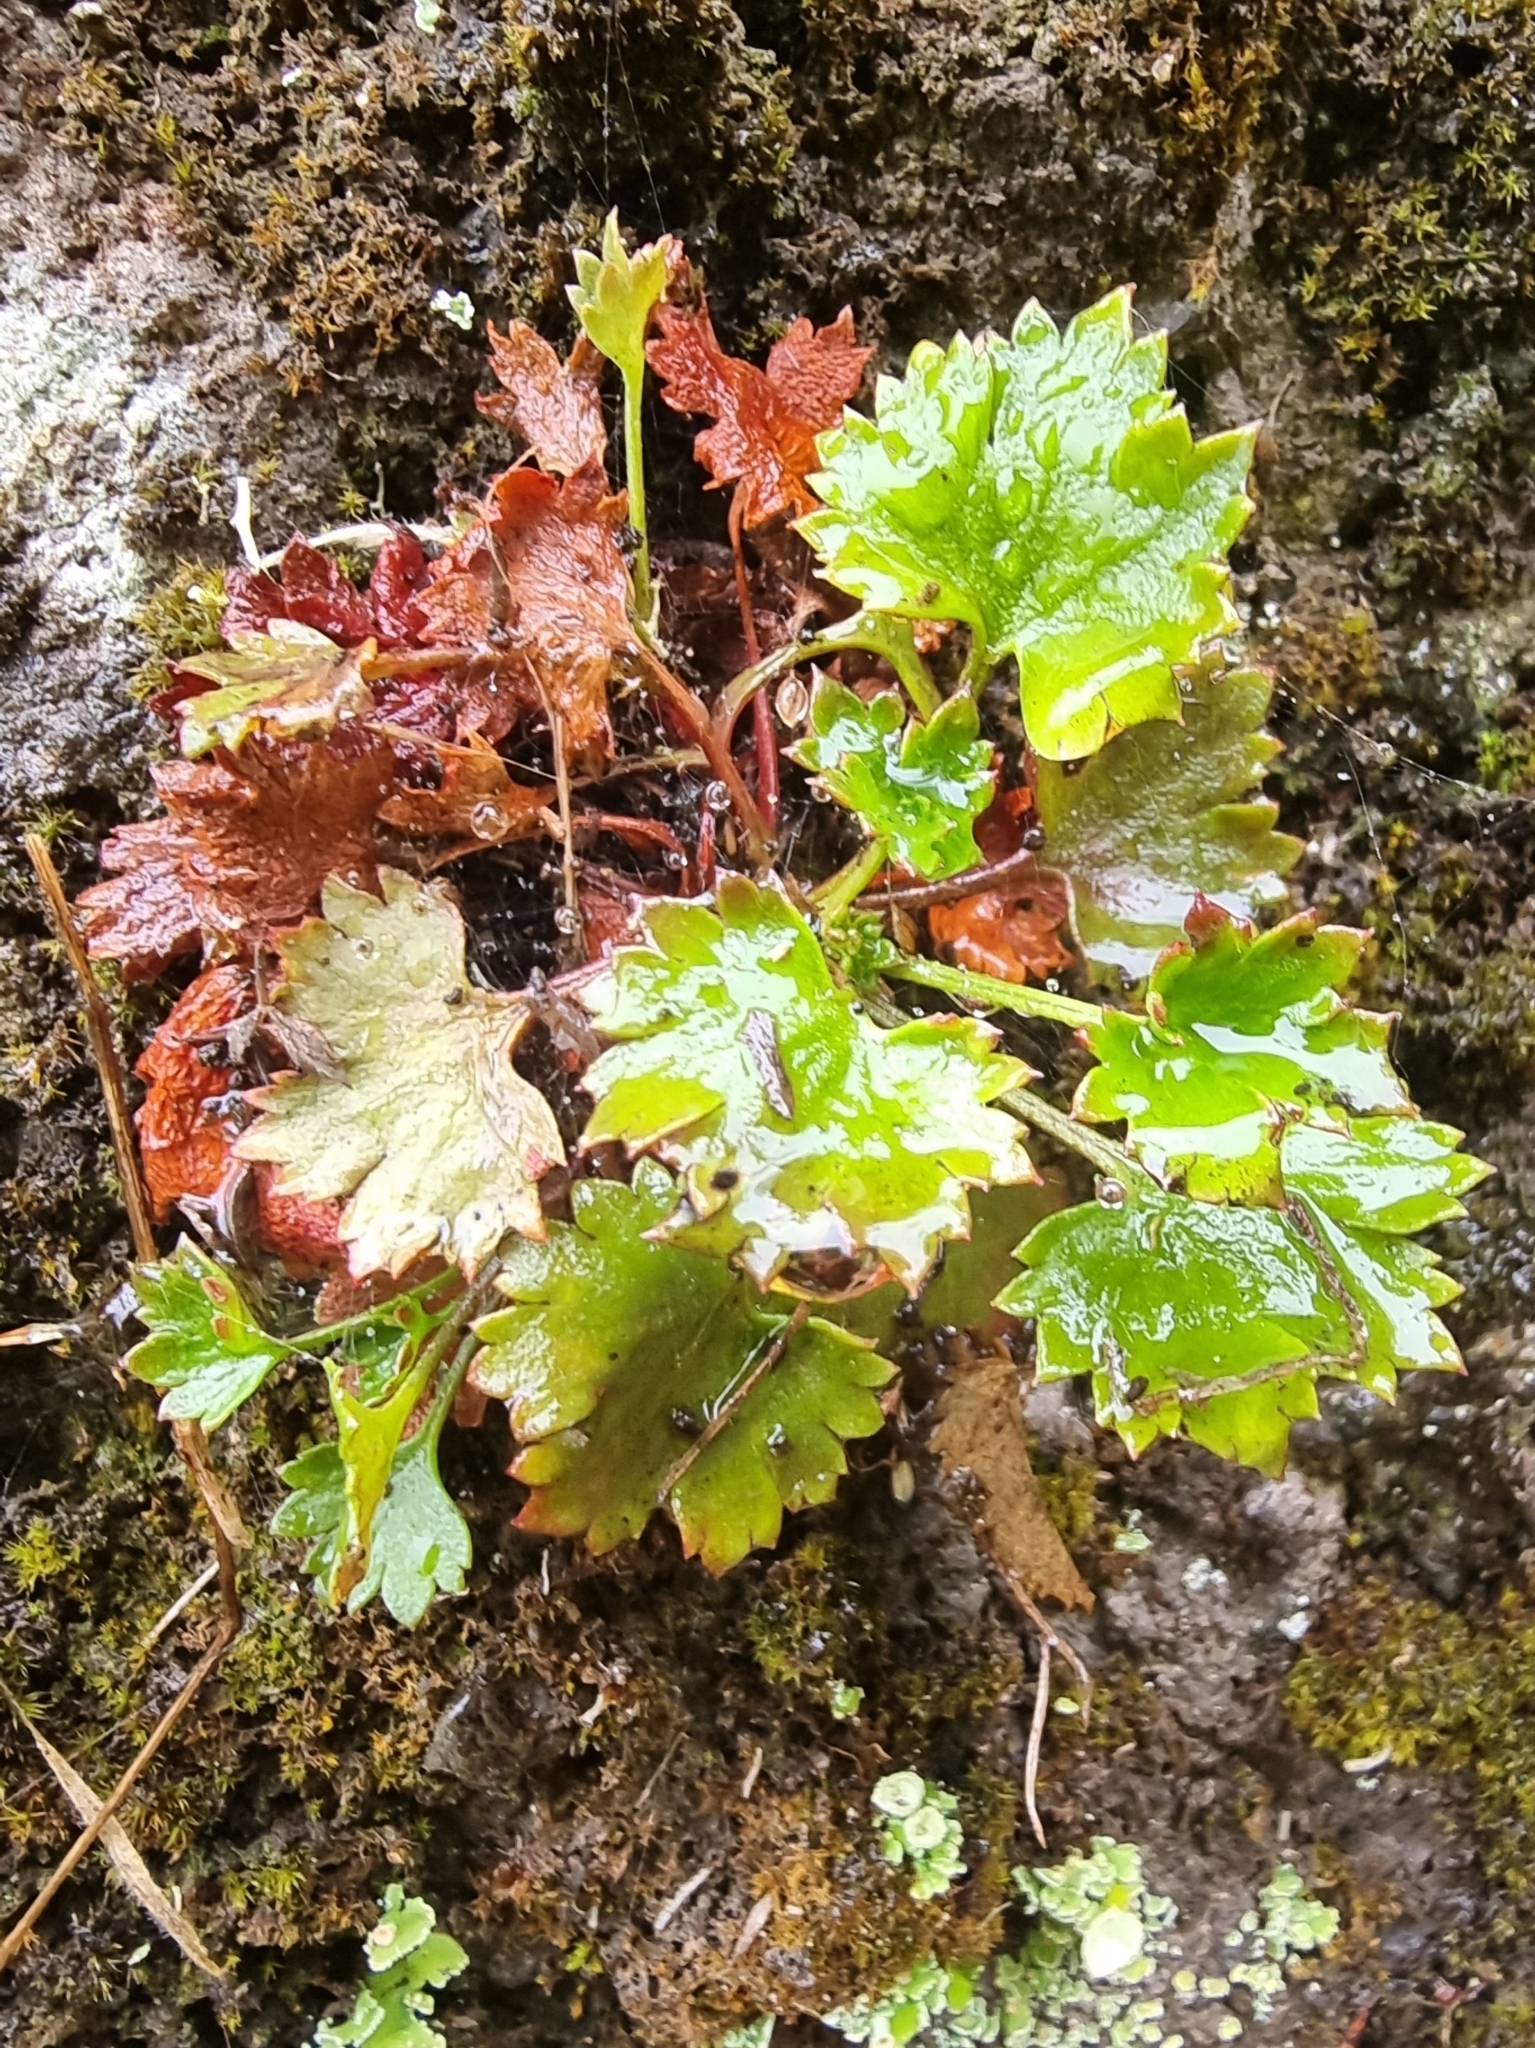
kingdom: Plantae
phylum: Tracheophyta
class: Magnoliopsida
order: Saxifragales
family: Saxifragaceae
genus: Saxifraga
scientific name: Saxifraga maderensis
